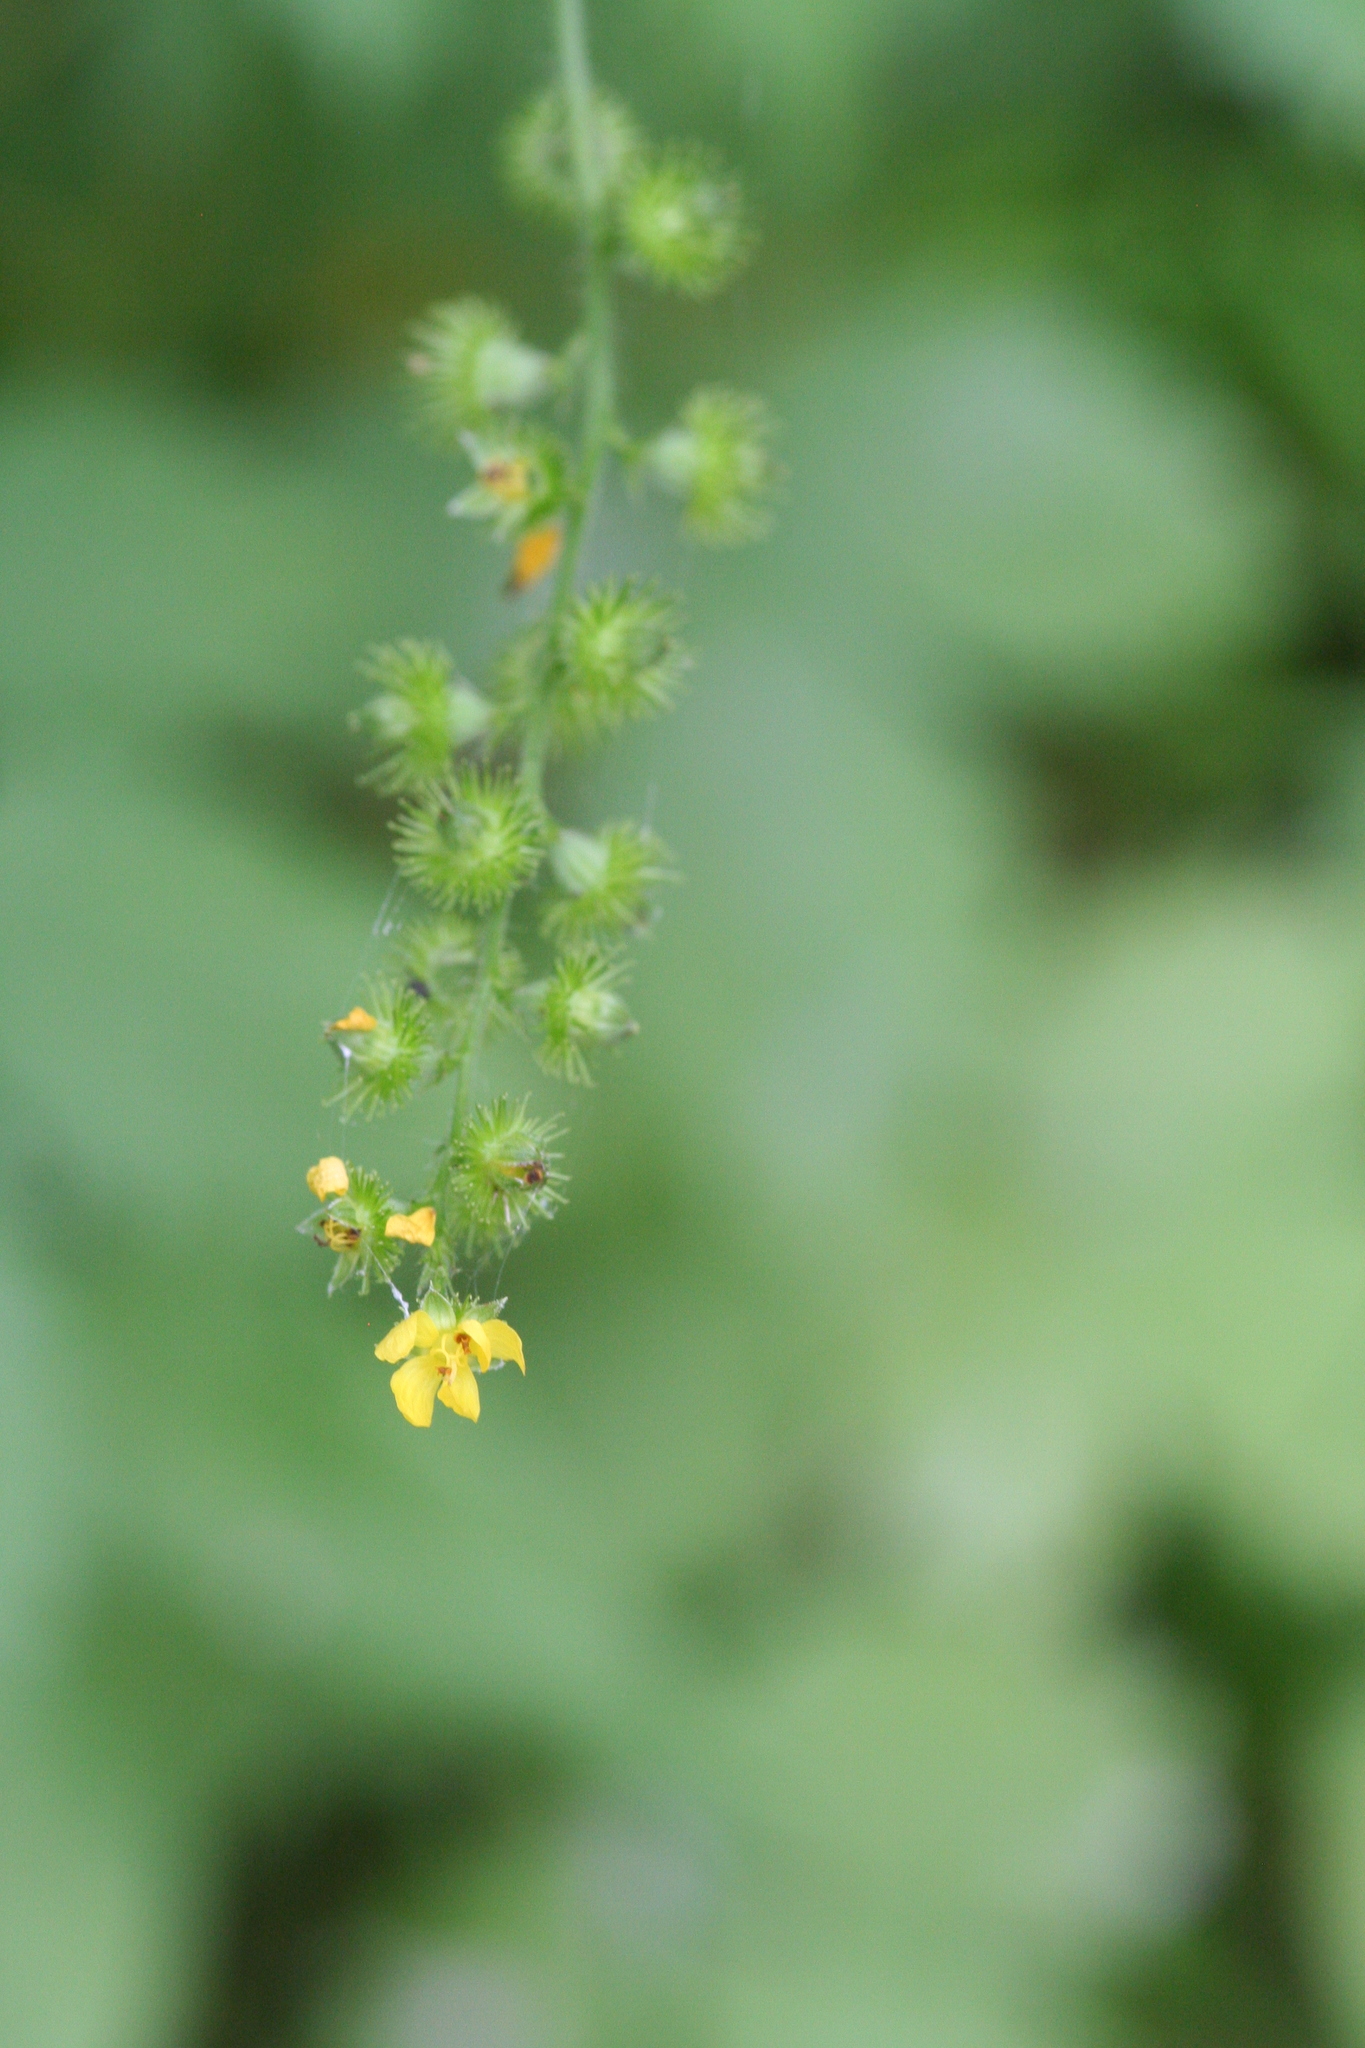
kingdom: Plantae
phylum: Tracheophyta
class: Magnoliopsida
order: Rosales
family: Rosaceae
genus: Agrimonia
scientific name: Agrimonia rostellata
